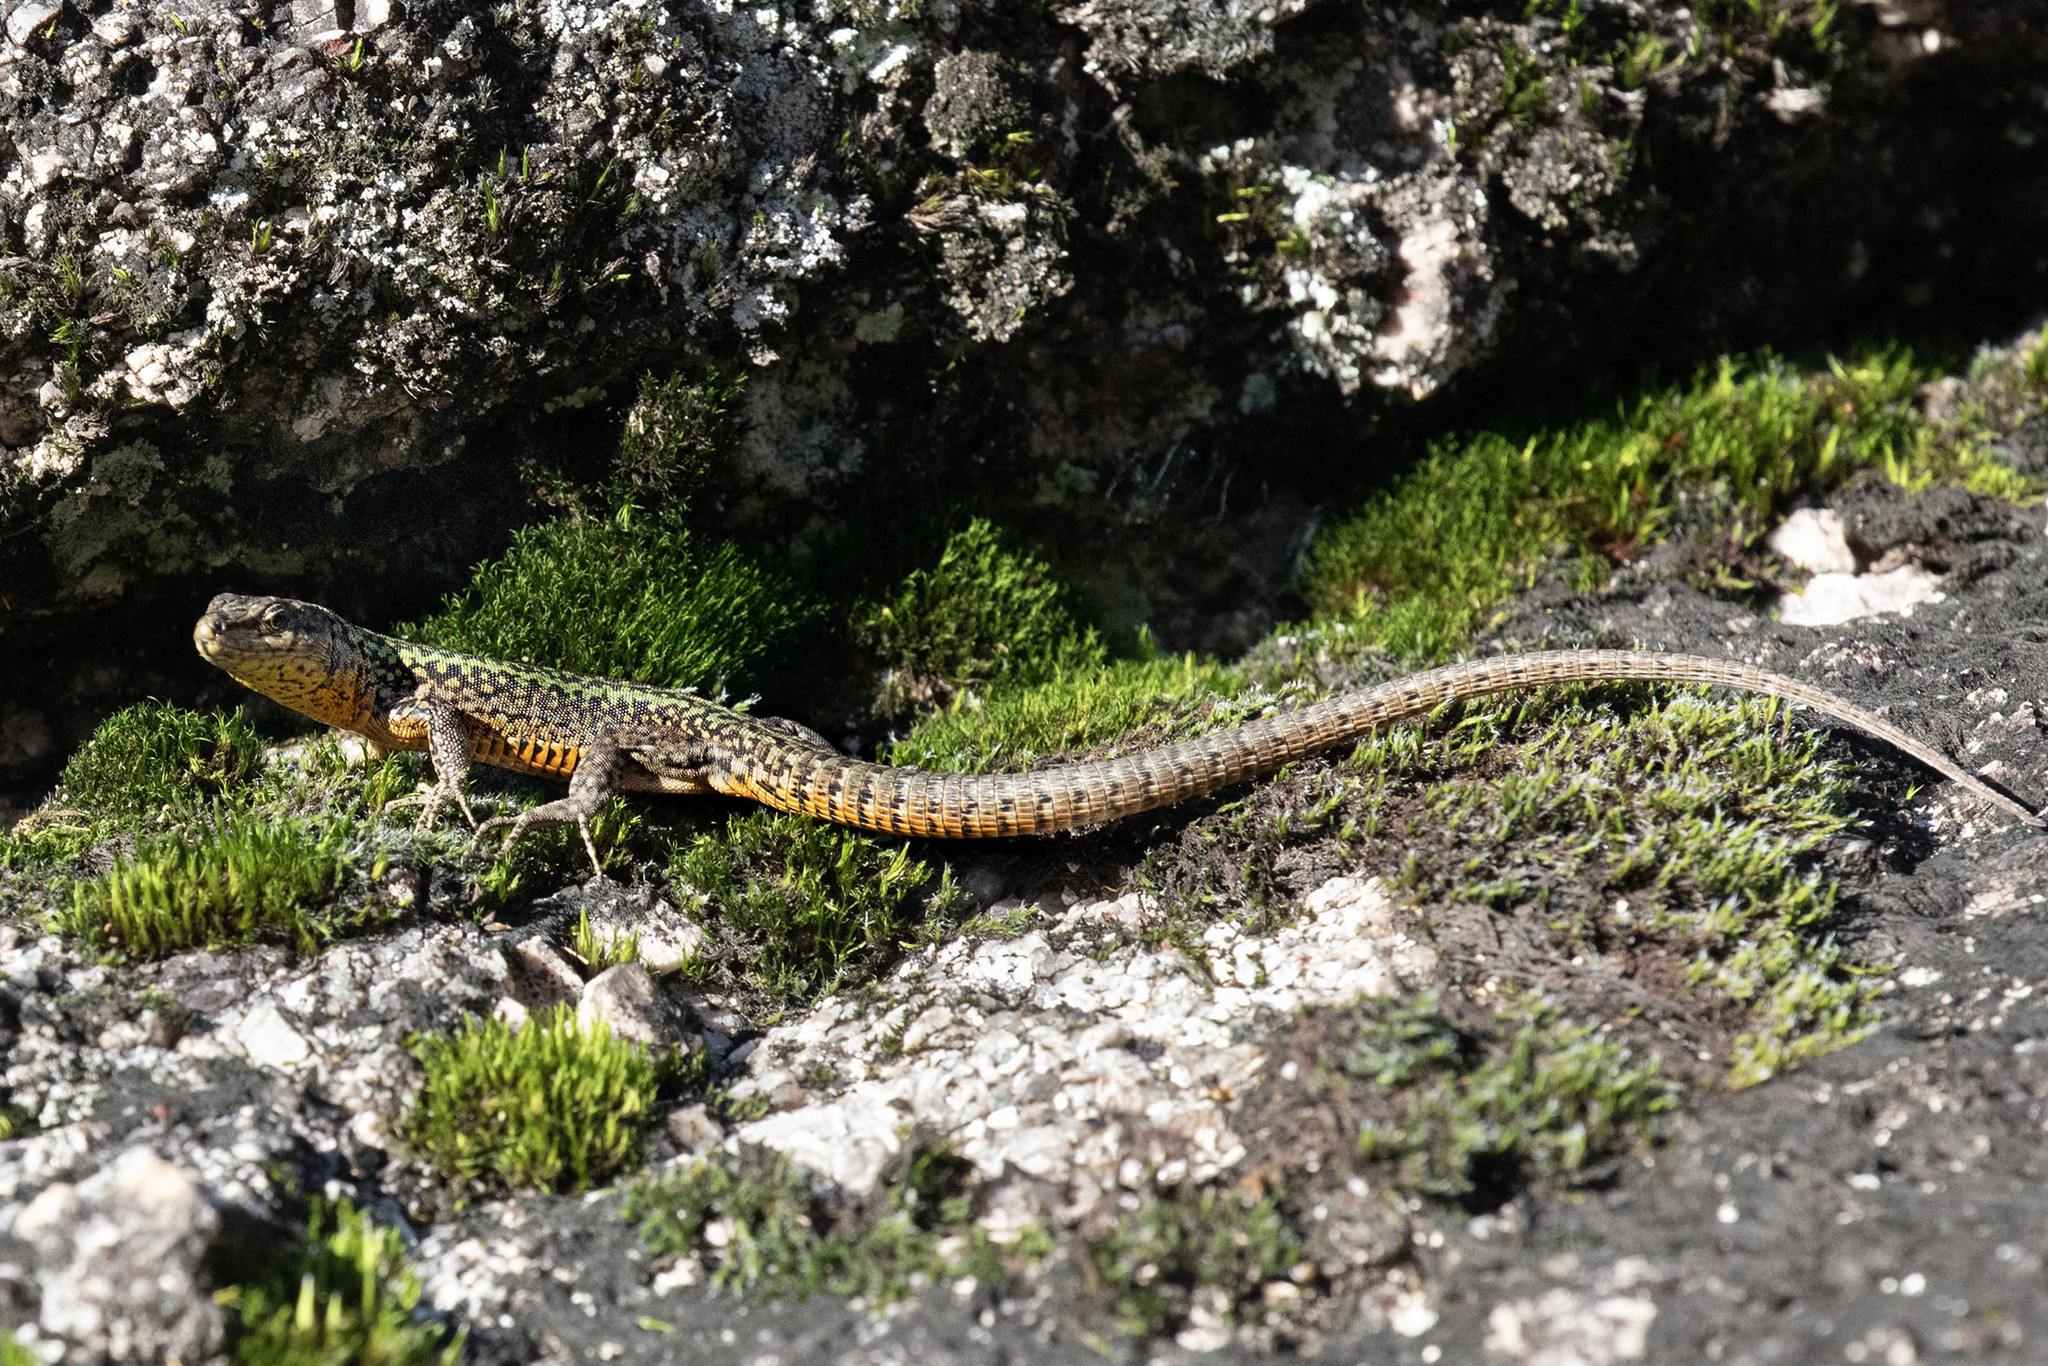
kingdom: Animalia
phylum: Chordata
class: Squamata
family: Lacertidae
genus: Podarcis
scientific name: Podarcis bocagei
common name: Bocage's wall lizard
